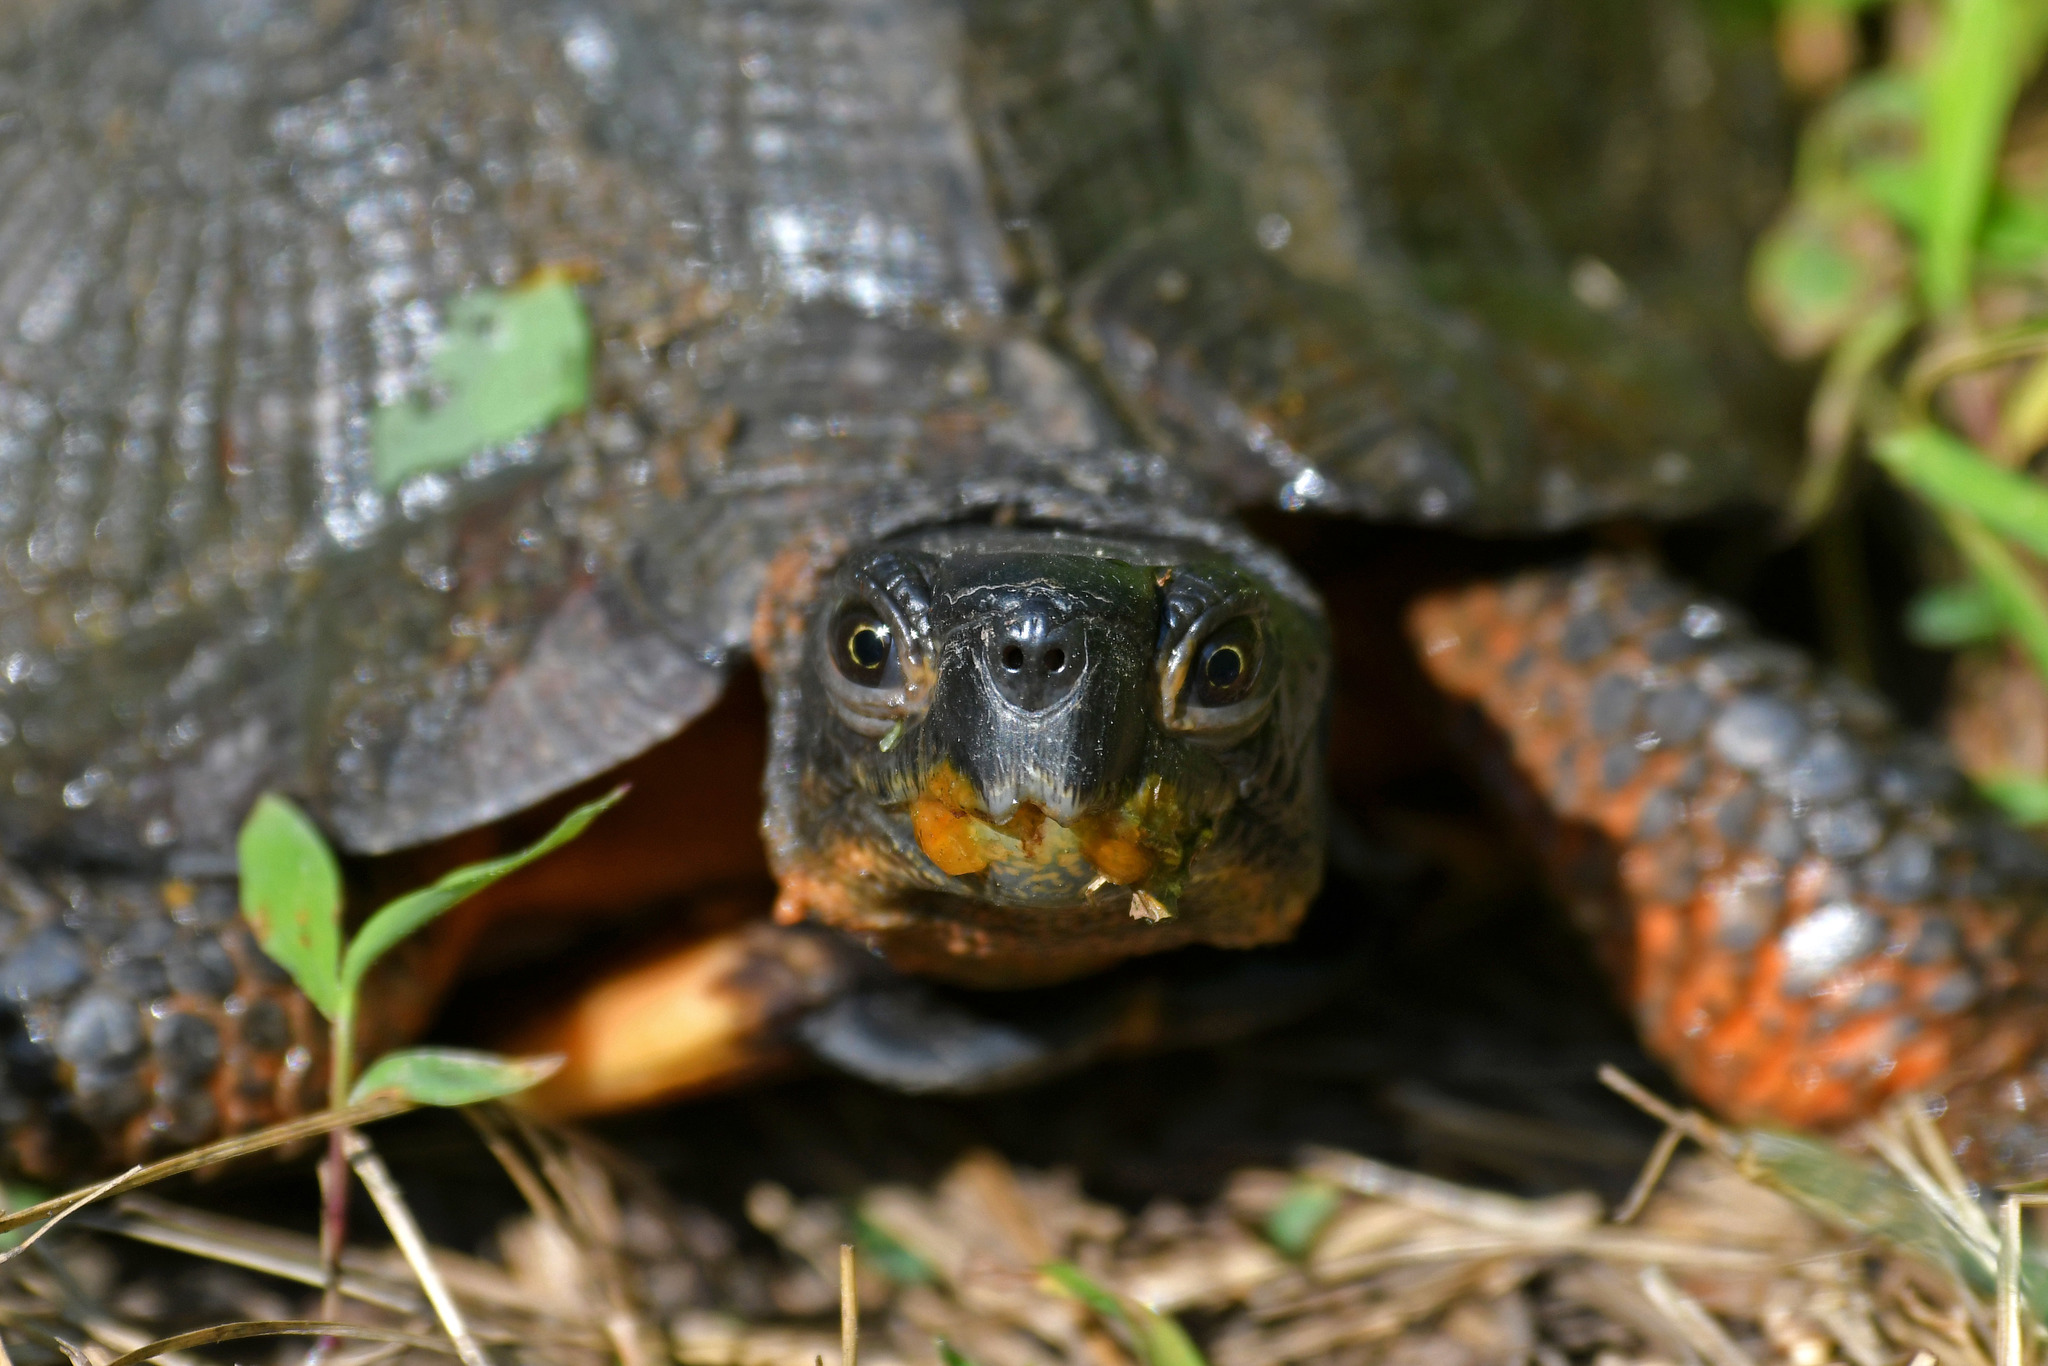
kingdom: Animalia
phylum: Chordata
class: Testudines
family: Emydidae
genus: Glyptemys
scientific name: Glyptemys insculpta
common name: Wood turtle
